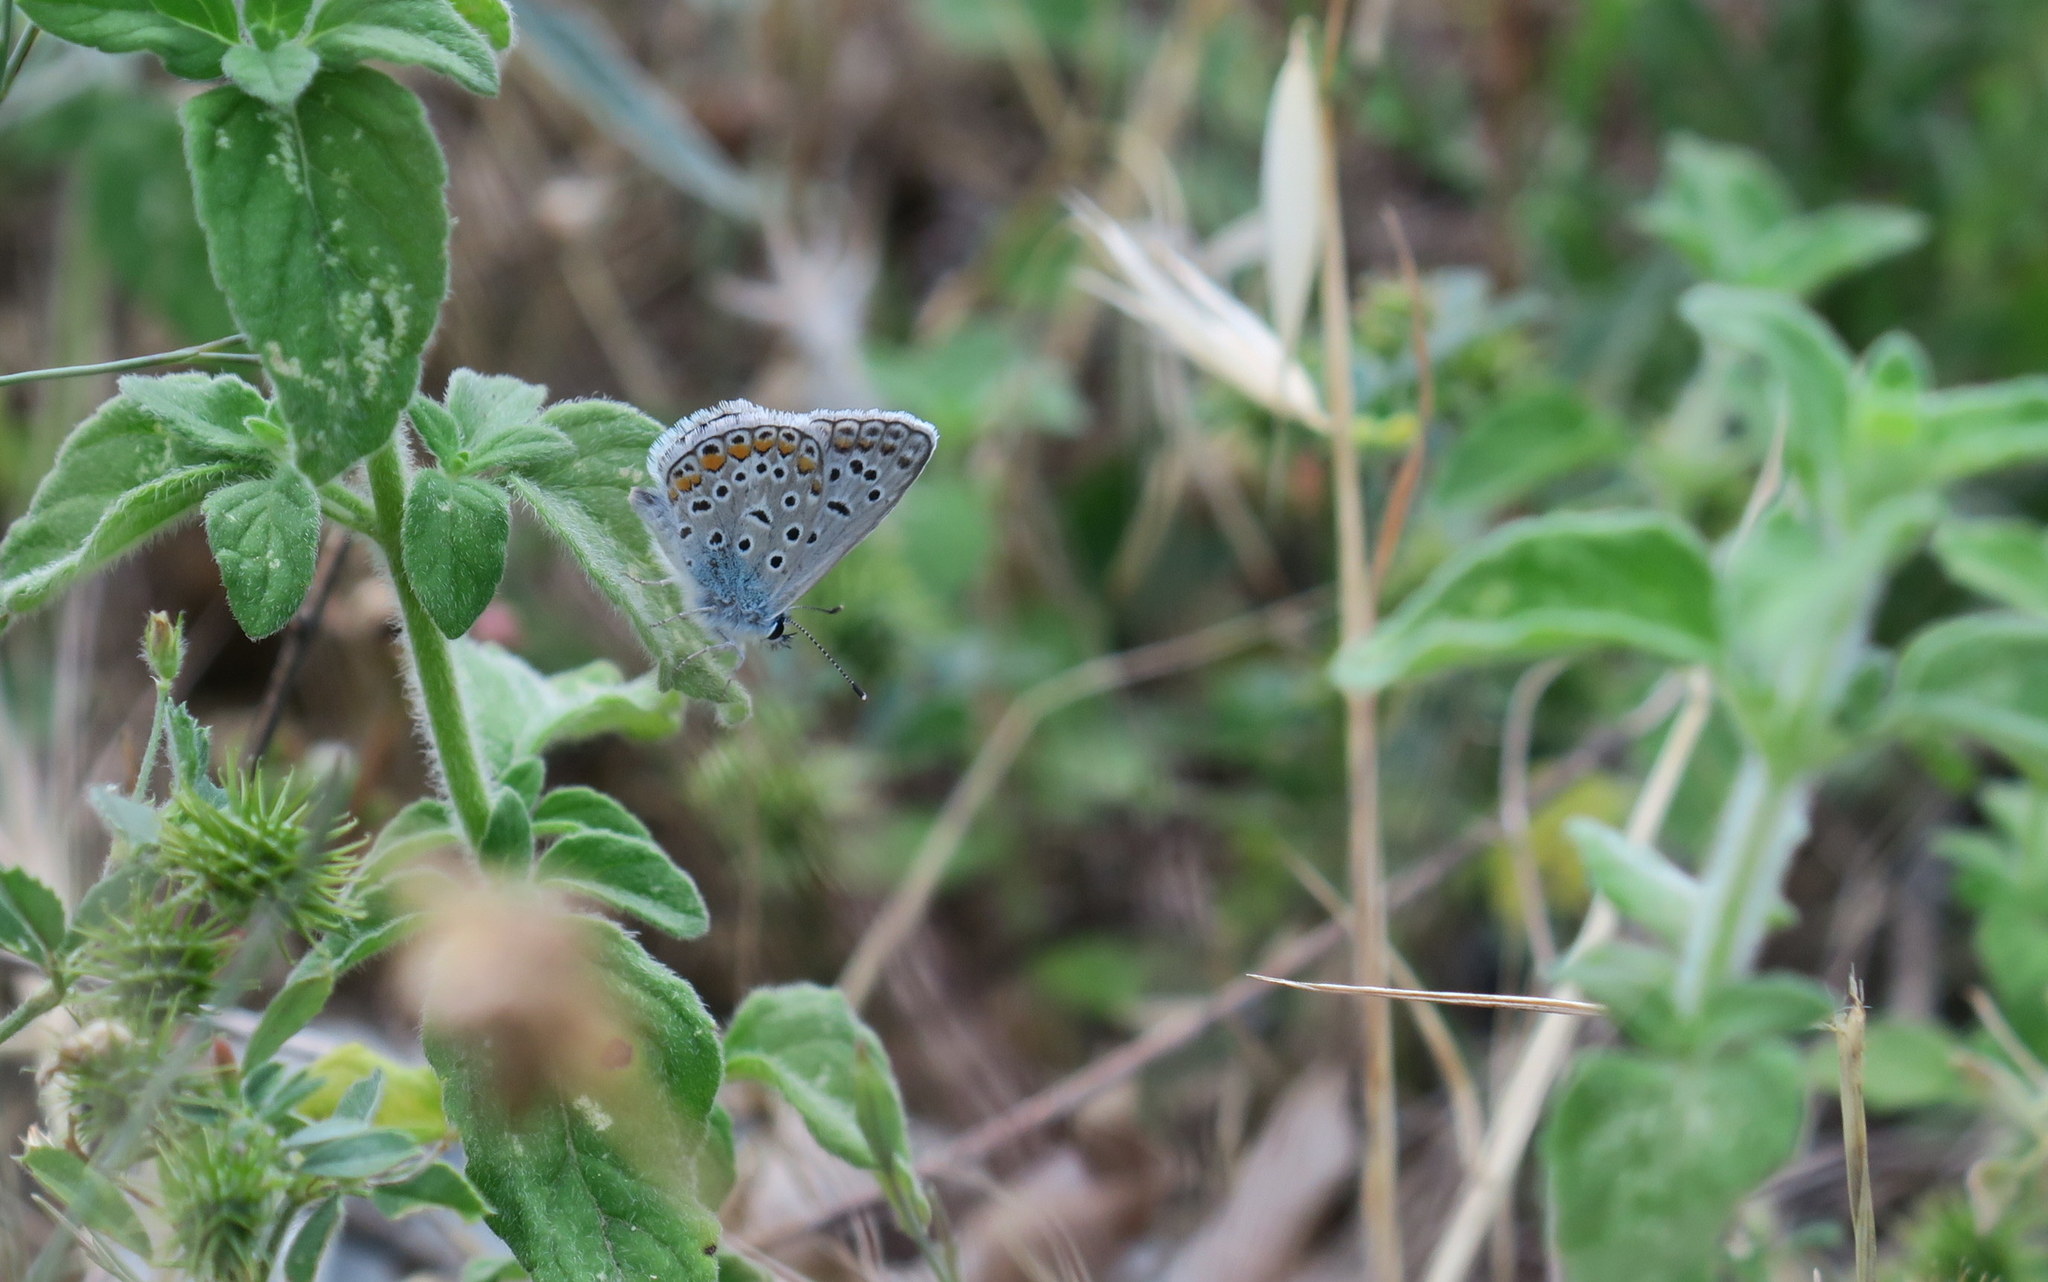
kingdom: Animalia
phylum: Arthropoda
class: Insecta
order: Lepidoptera
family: Lycaenidae
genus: Polyommatus
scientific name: Polyommatus icarus
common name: Common blue
